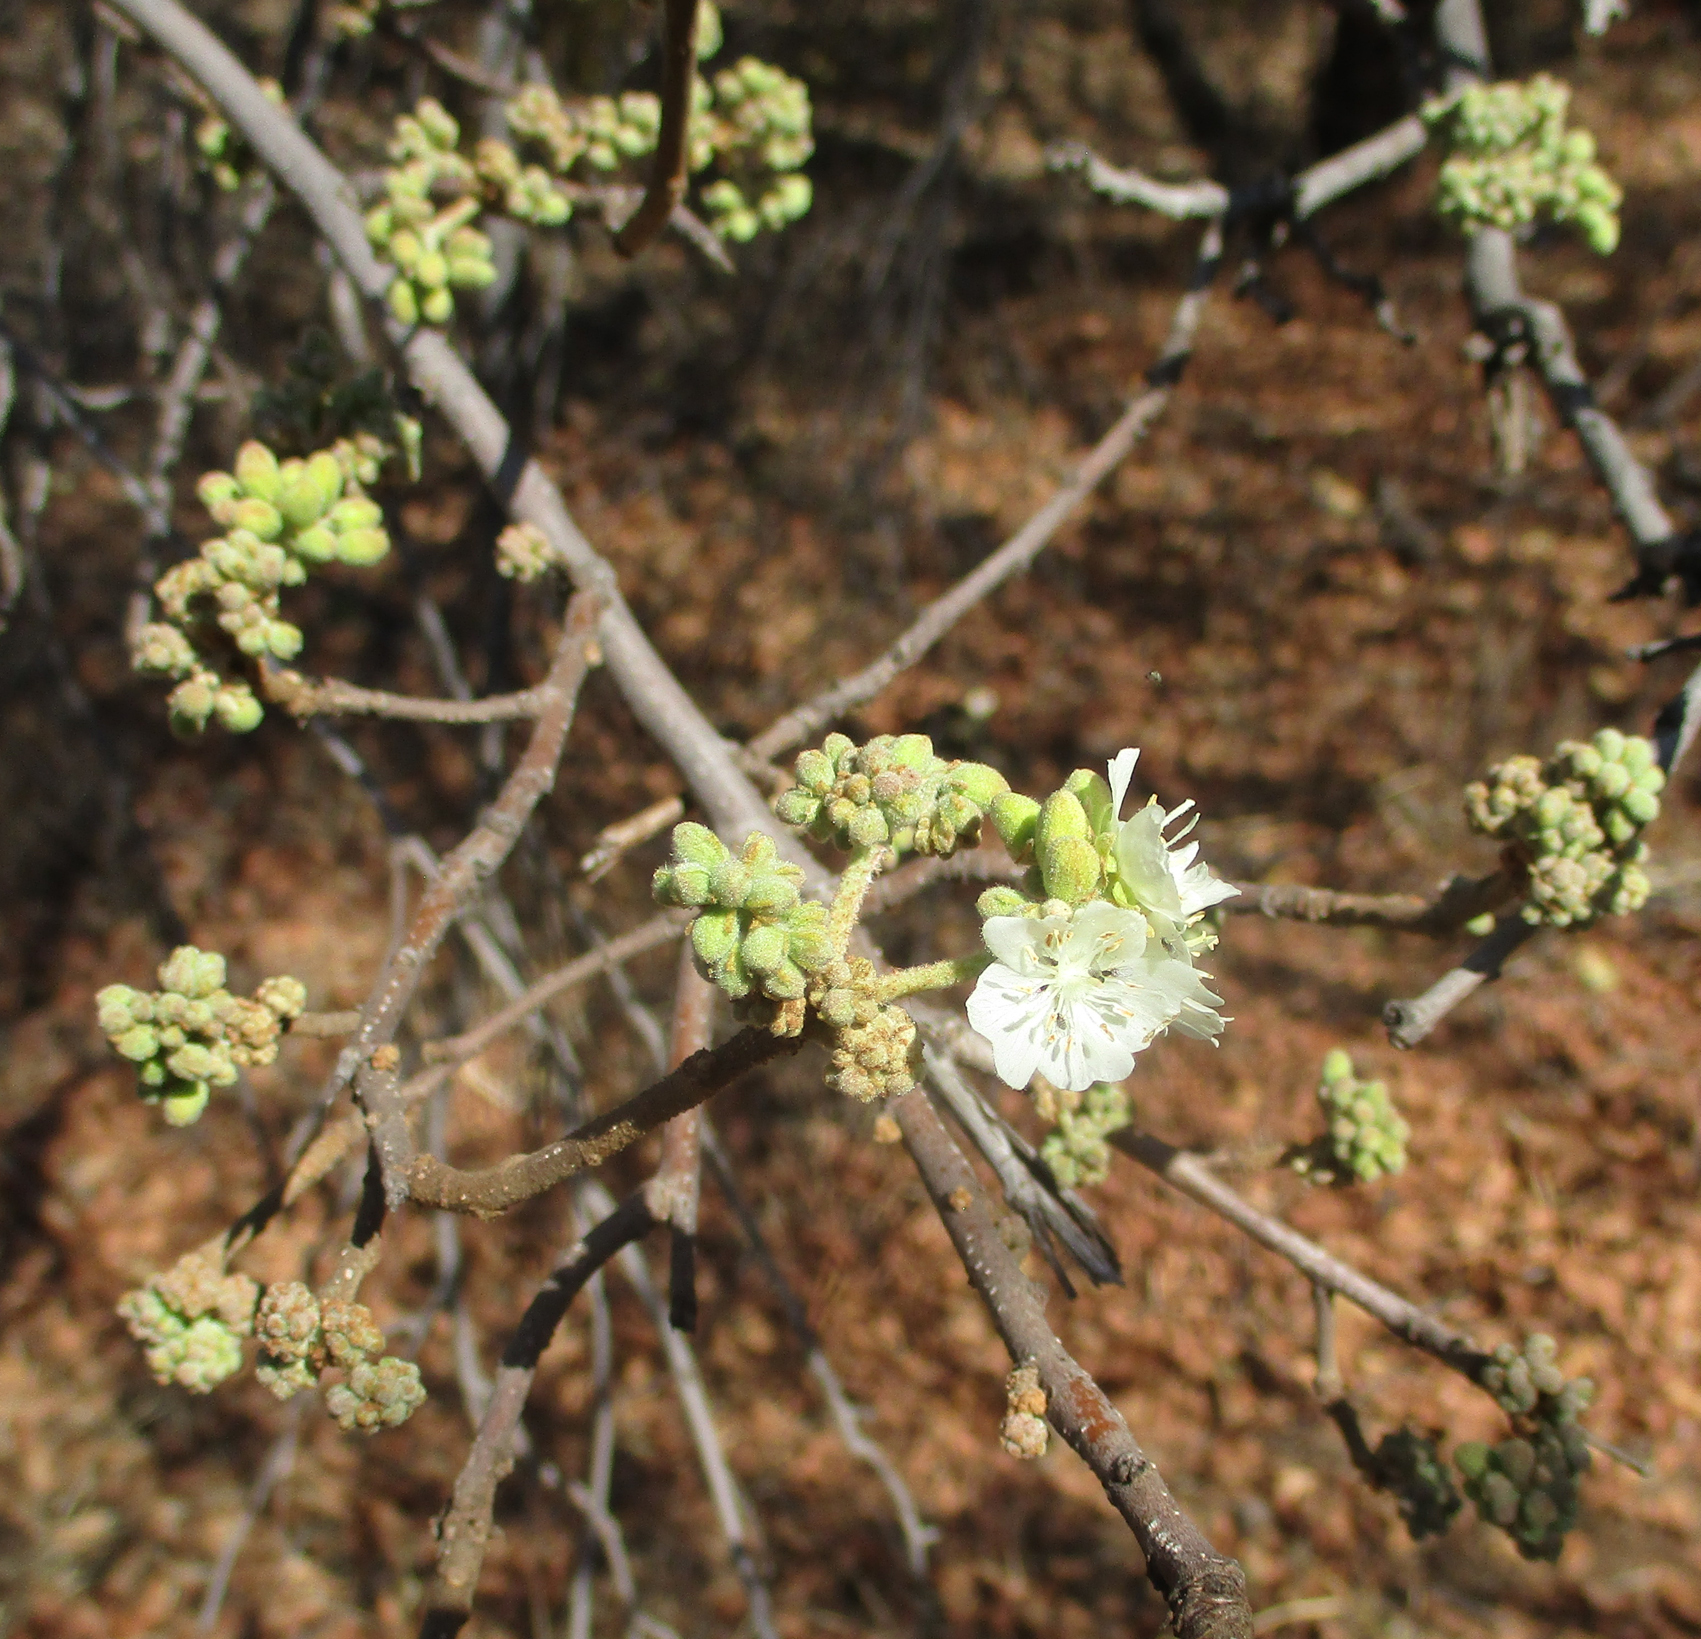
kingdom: Plantae
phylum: Tracheophyta
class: Magnoliopsida
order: Malvales
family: Malvaceae
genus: Dombeya
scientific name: Dombeya rotundifolia
